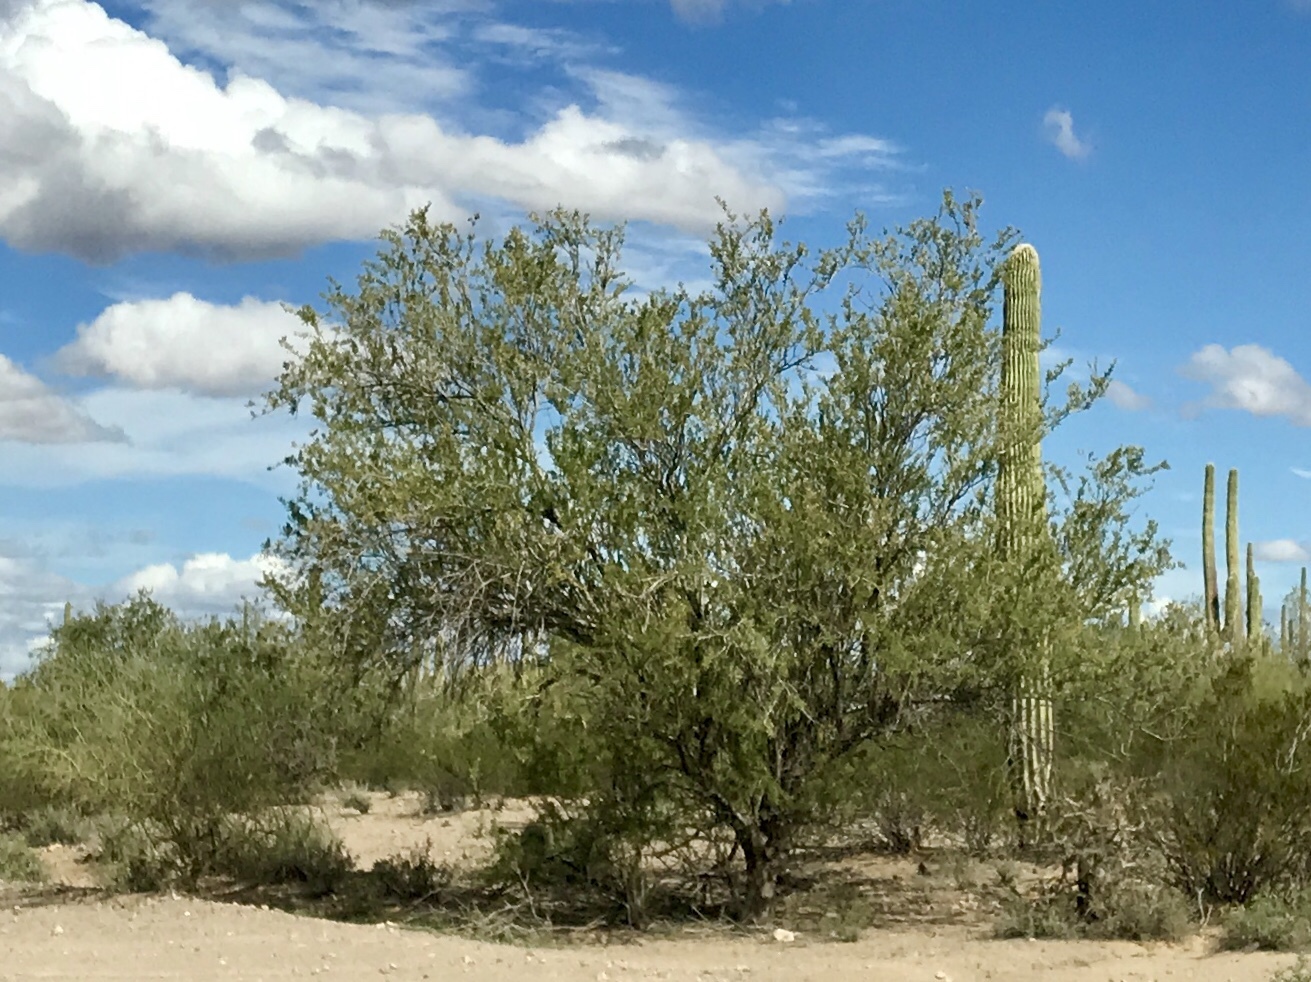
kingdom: Plantae
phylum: Tracheophyta
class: Magnoliopsida
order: Fabales
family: Fabaceae
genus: Olneya
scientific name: Olneya tesota
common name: Desert ironwood
